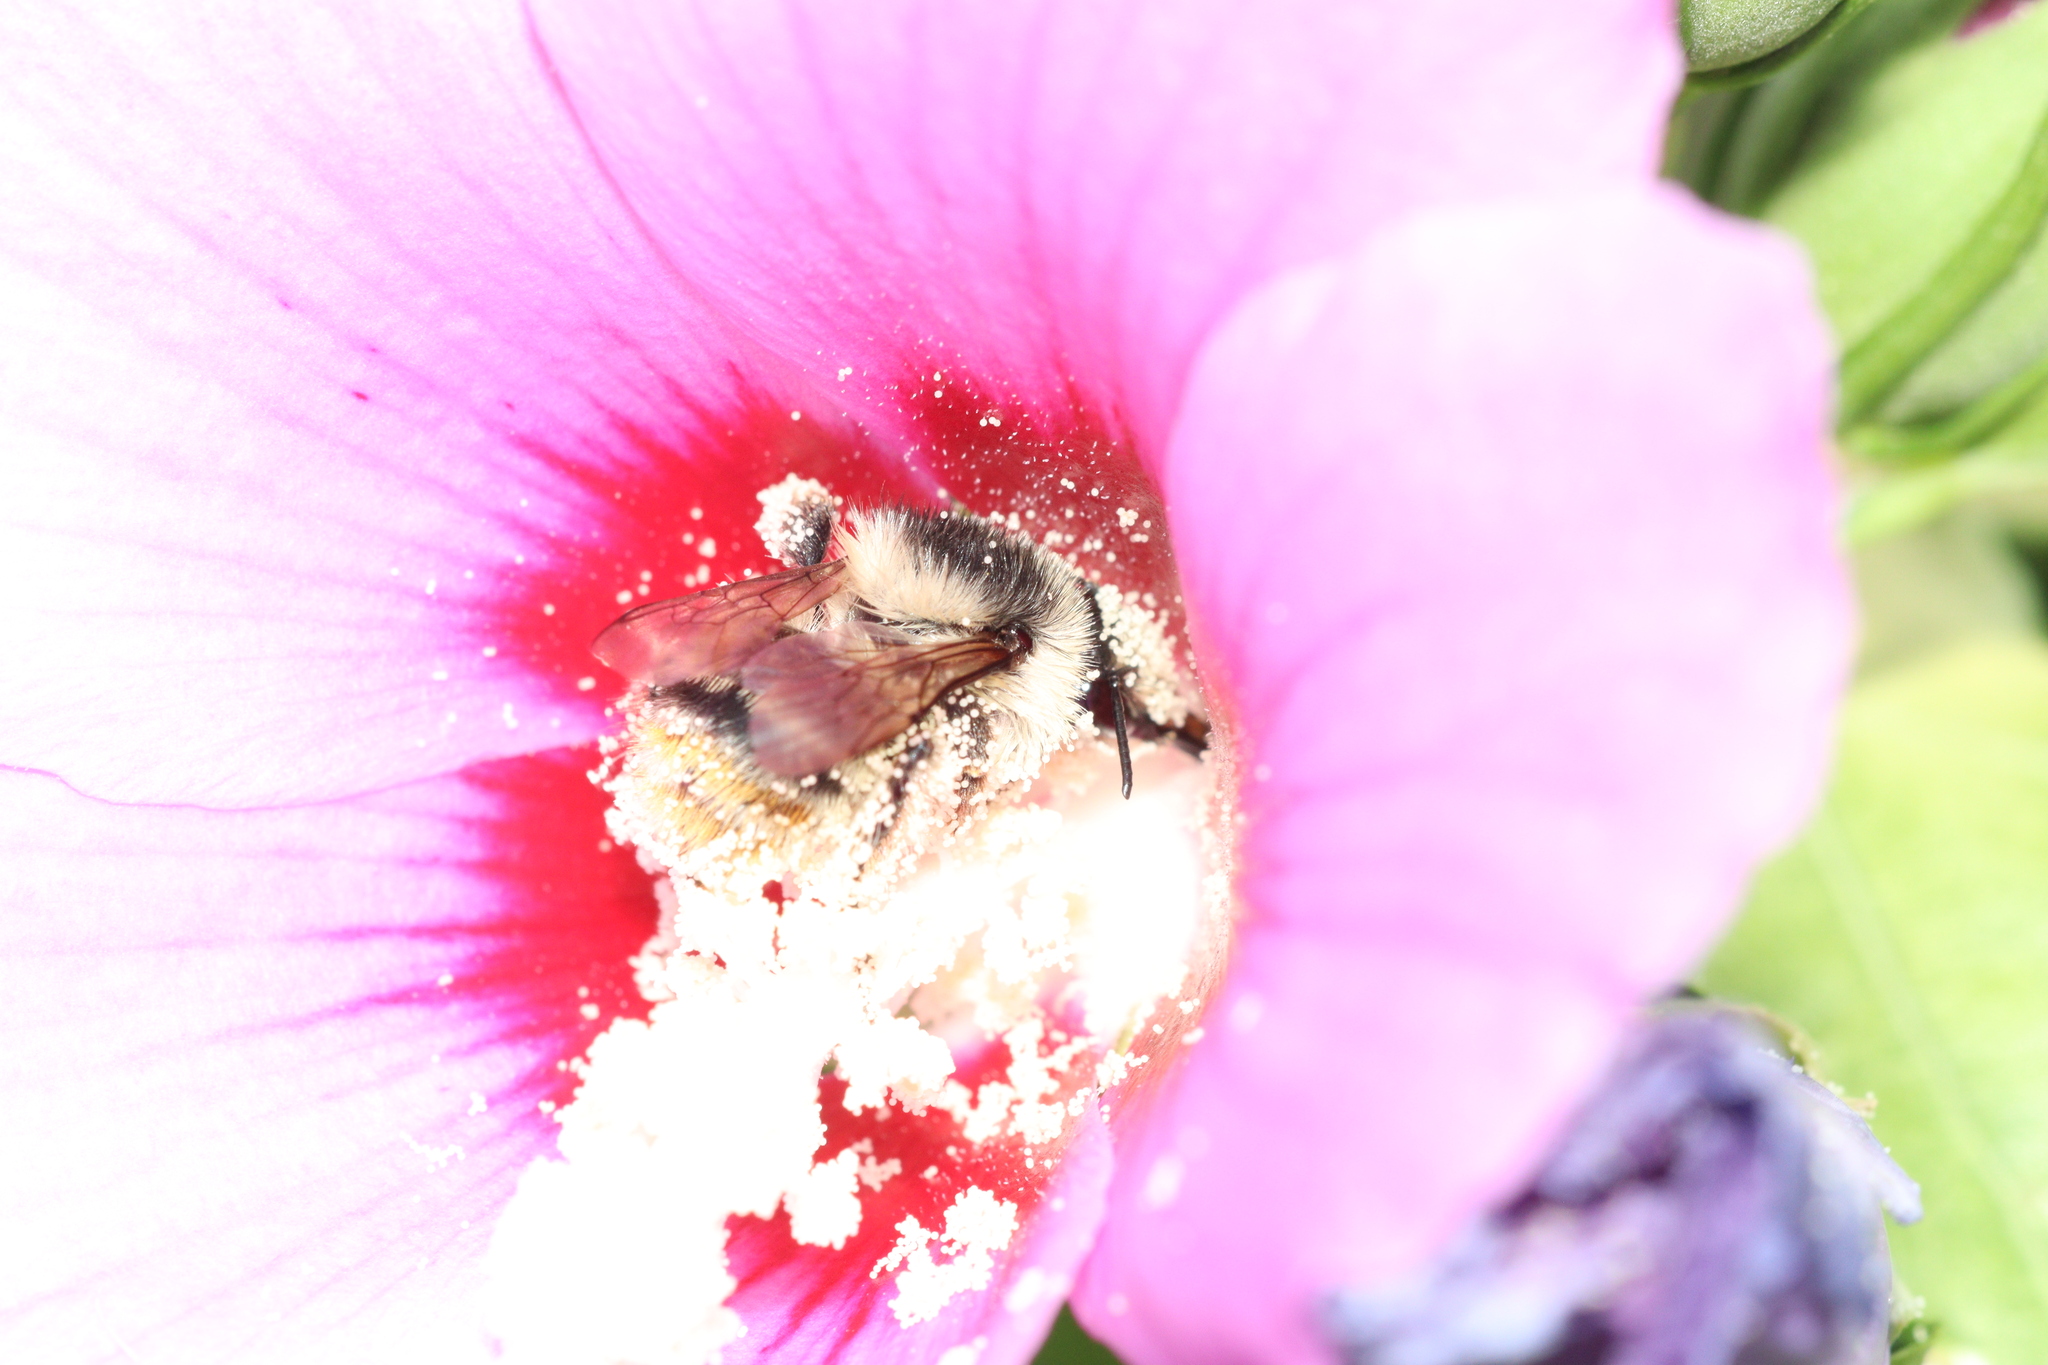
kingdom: Animalia
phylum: Arthropoda
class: Insecta
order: Hymenoptera
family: Apidae
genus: Bombus
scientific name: Bombus sylvarum
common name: Shrill carder bee
